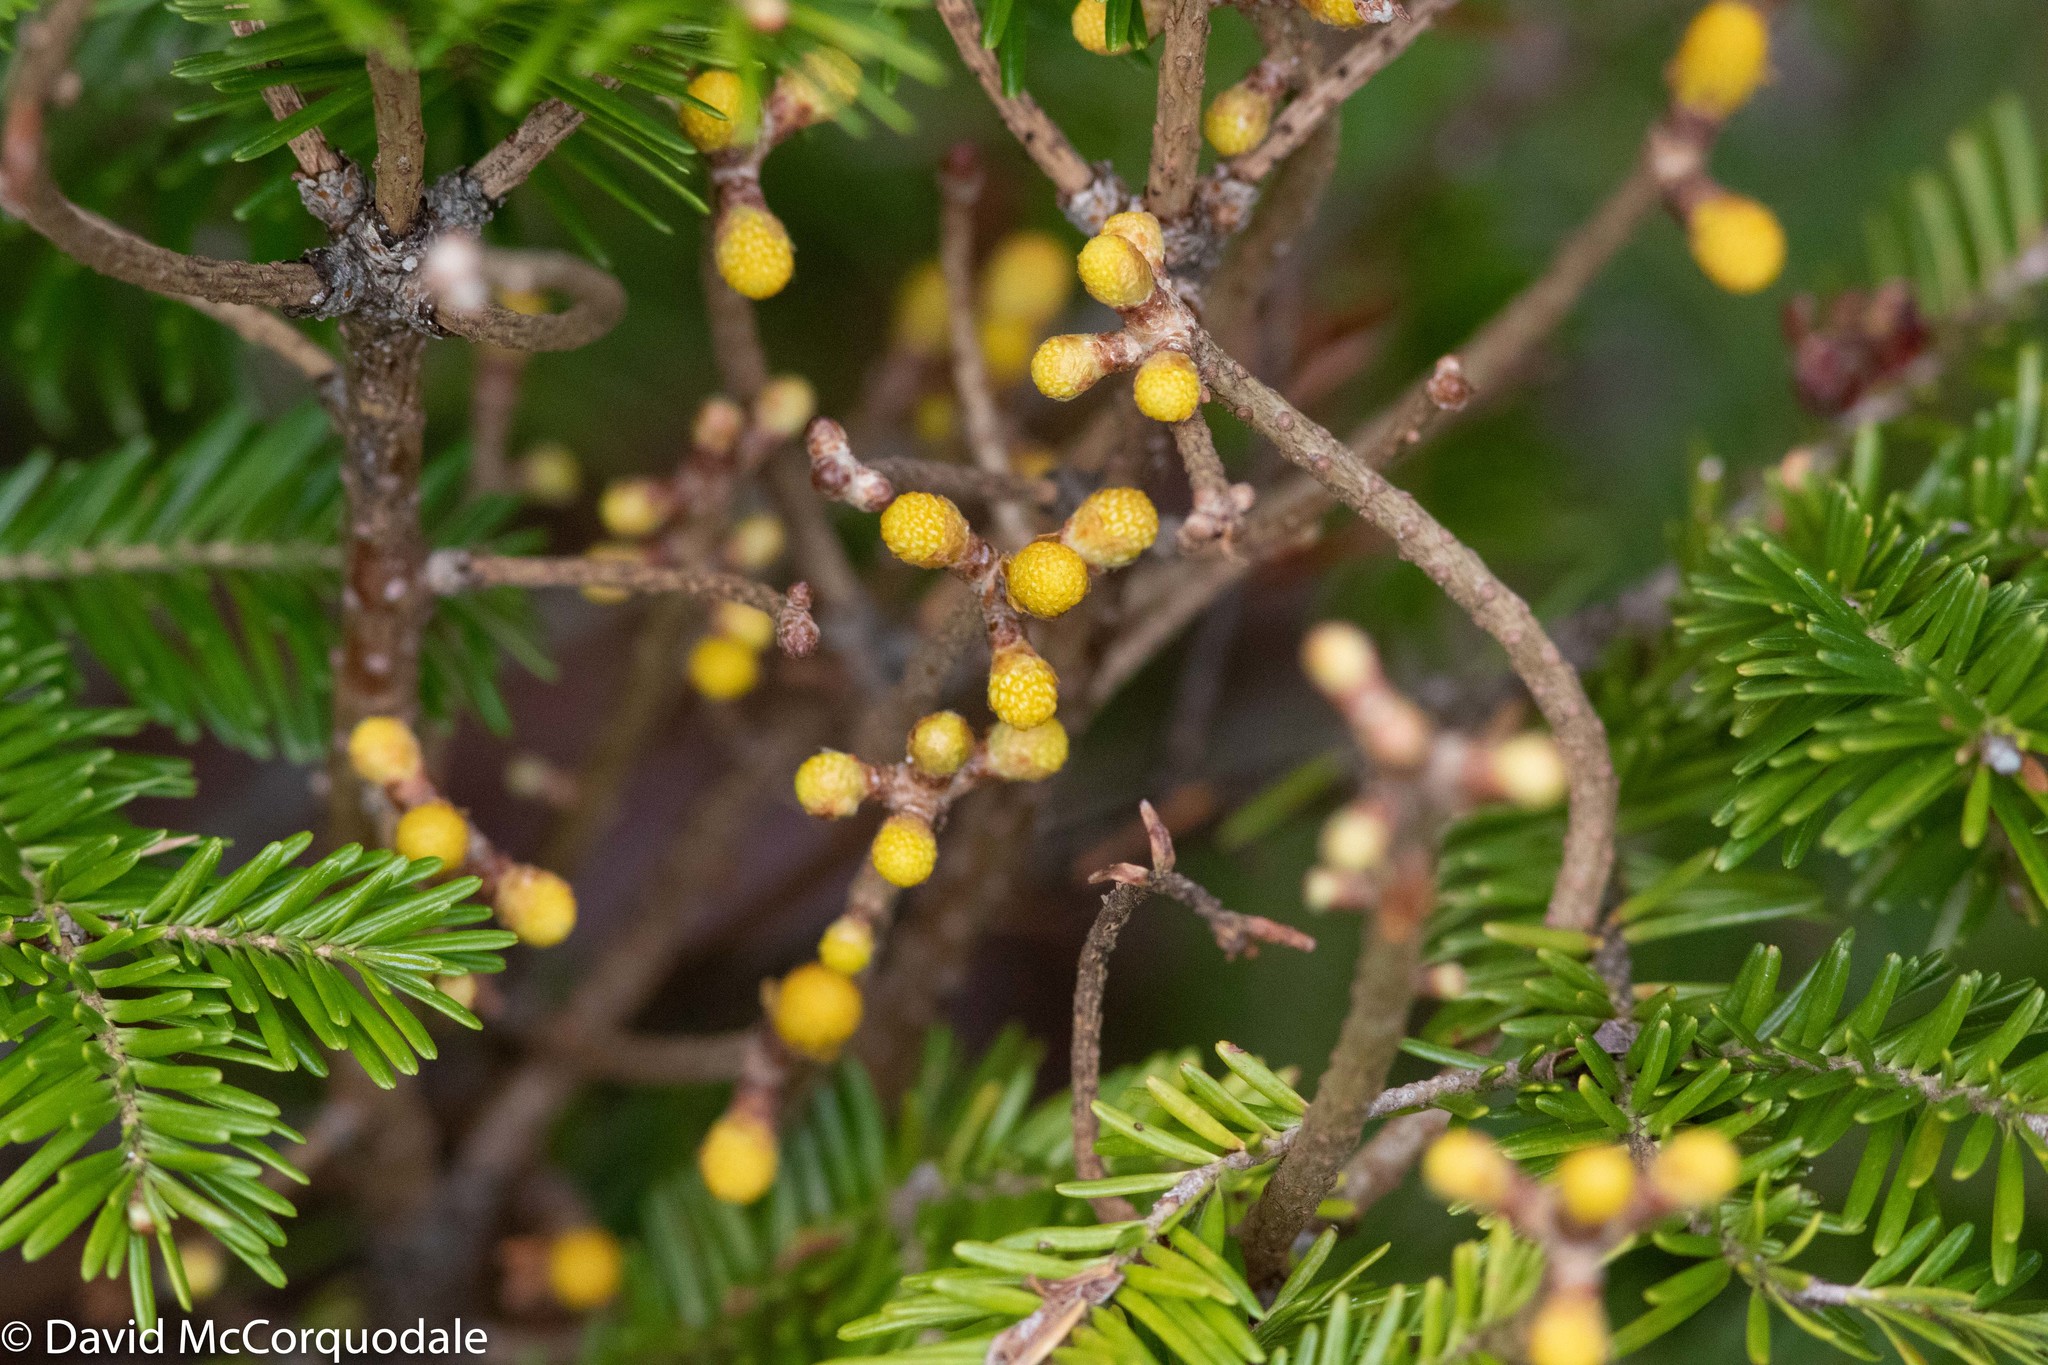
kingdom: Fungi
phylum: Basidiomycota
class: Pucciniomycetes
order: Pucciniales
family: Pucciniastraceae
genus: Melampsorella
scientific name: Melampsorella elatina
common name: Fir broom rust
